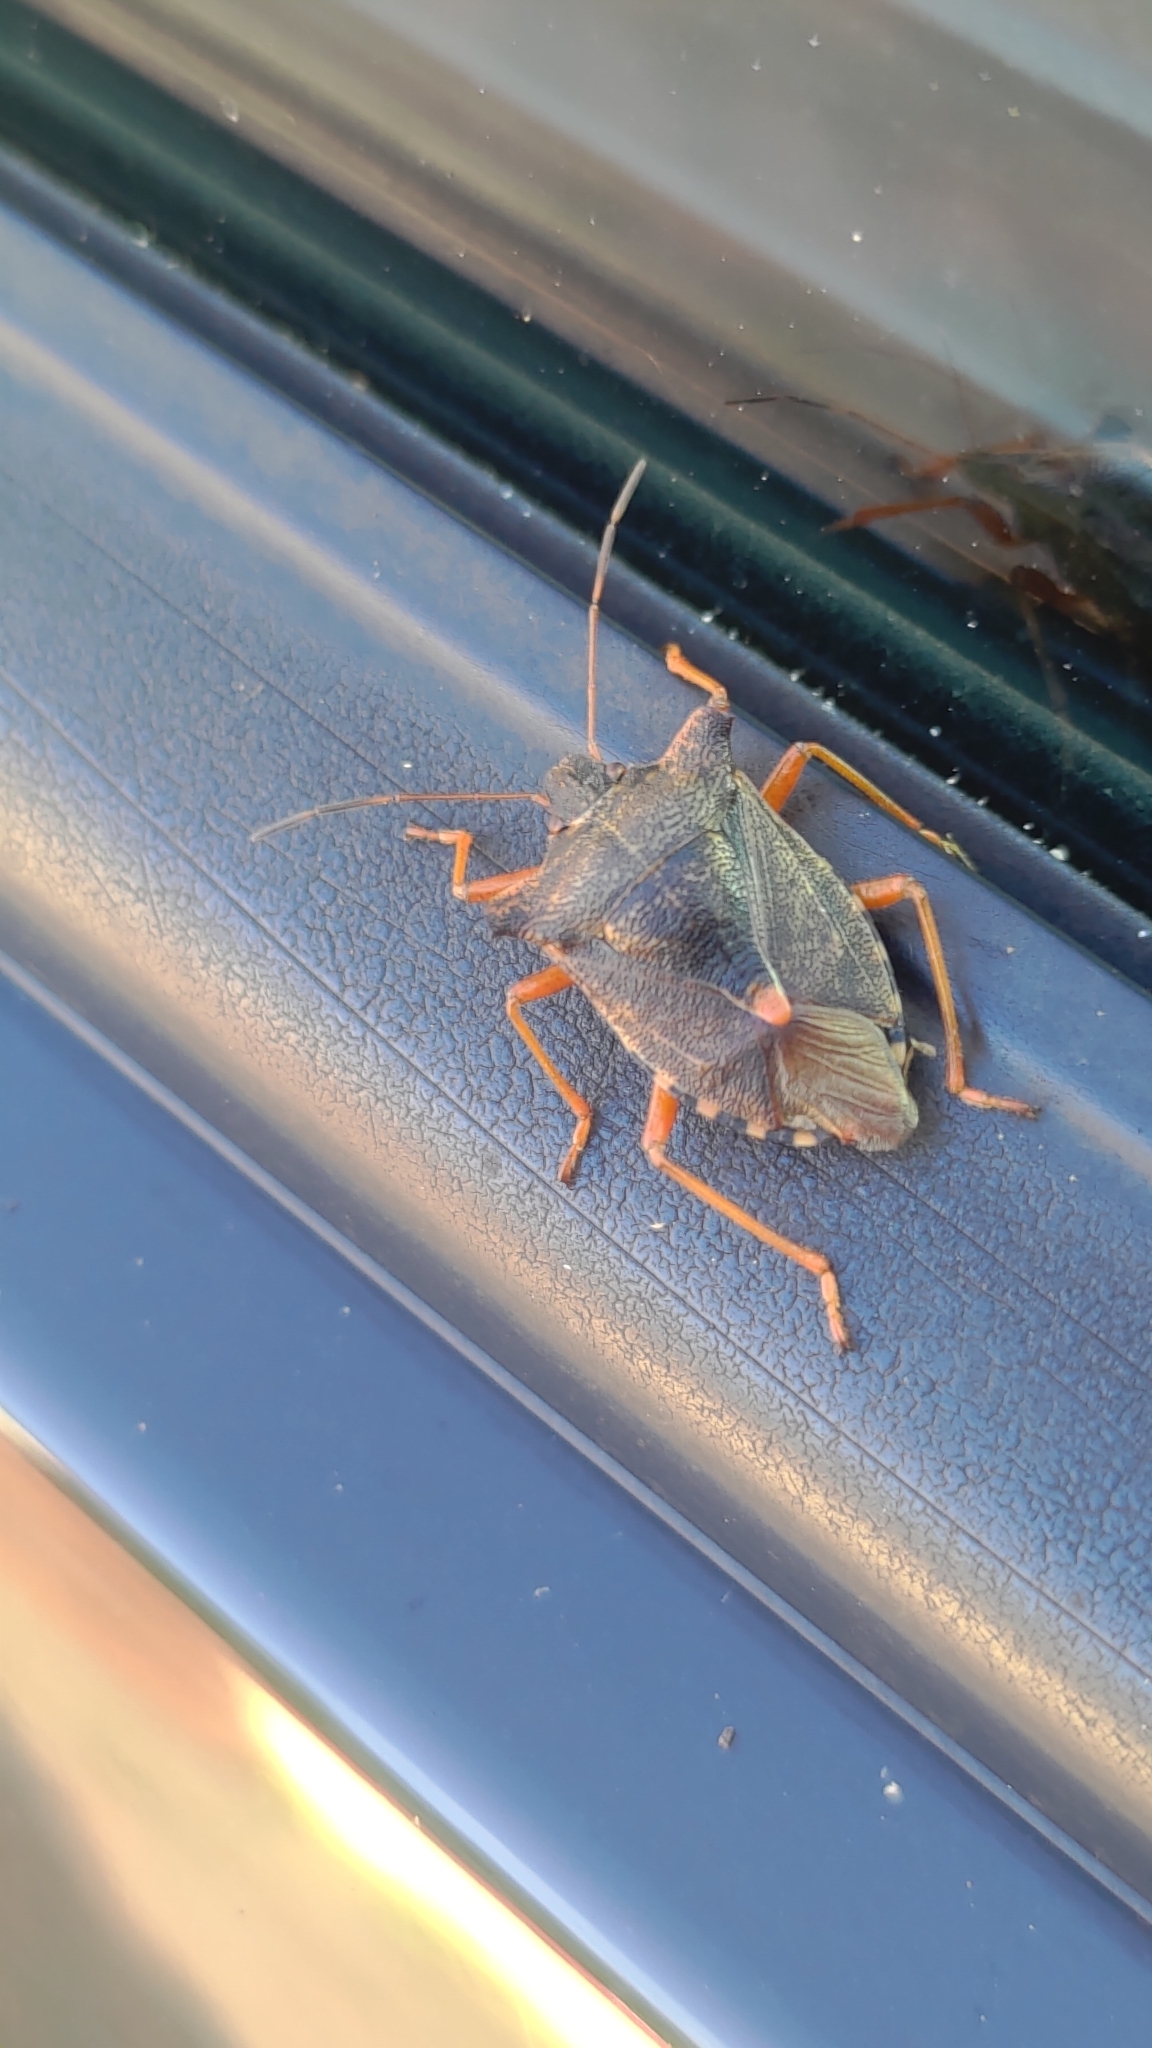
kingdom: Animalia
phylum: Arthropoda
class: Insecta
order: Hemiptera
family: Pentatomidae
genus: Pentatoma
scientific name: Pentatoma rufipes
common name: Forest bug
